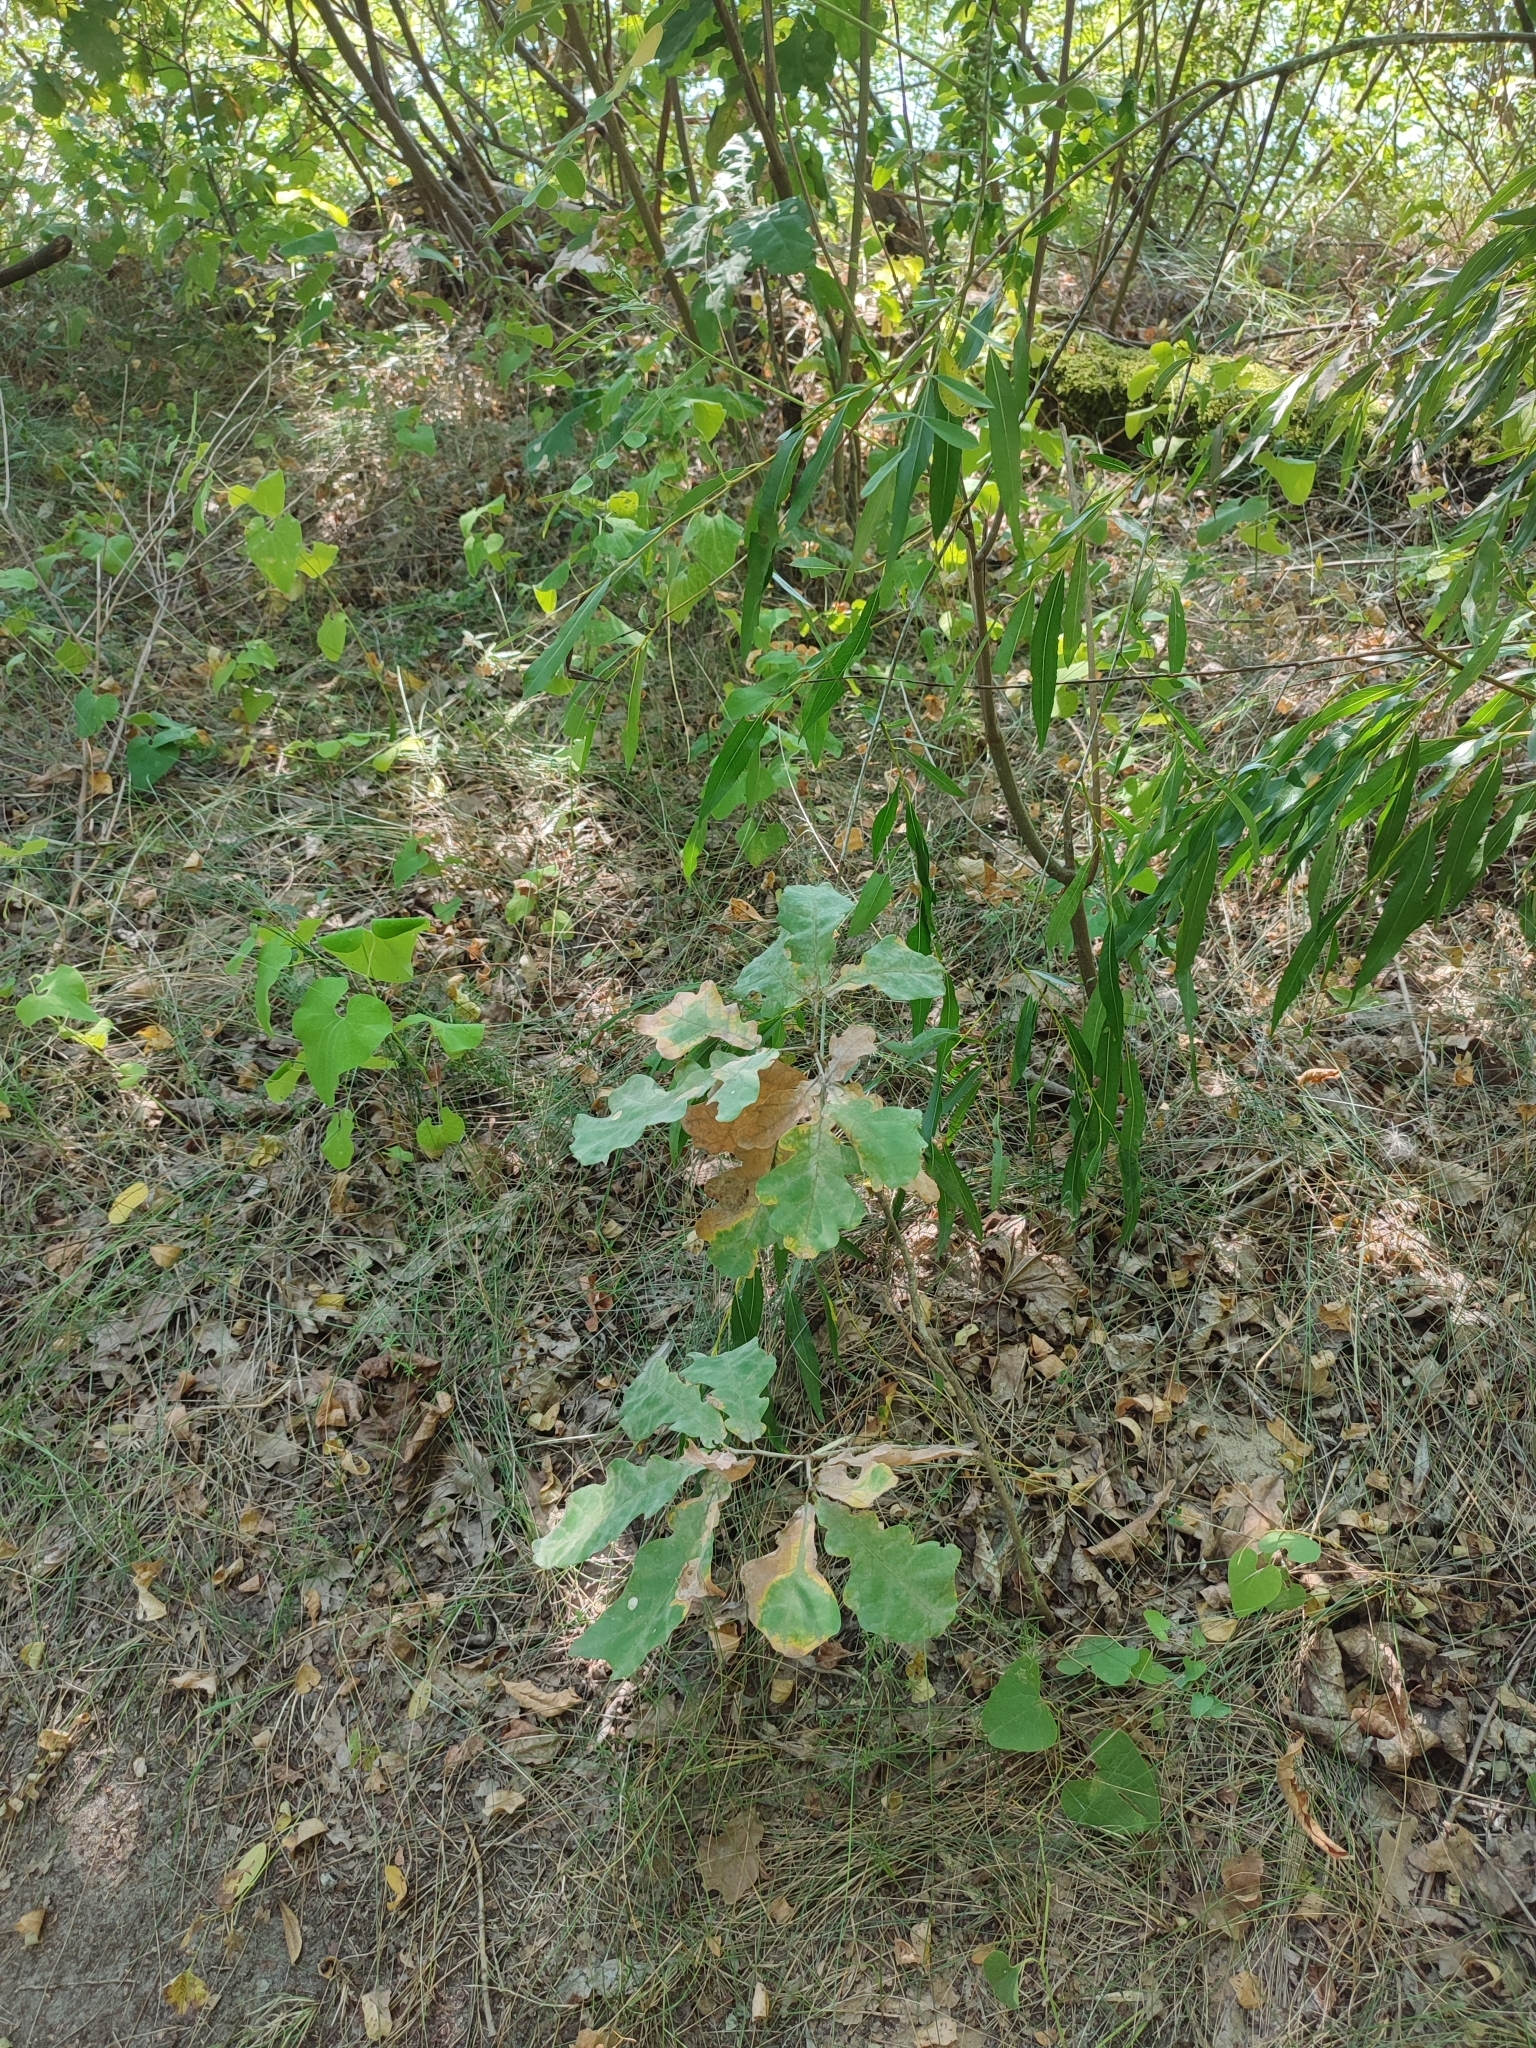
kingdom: Plantae
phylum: Tracheophyta
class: Magnoliopsida
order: Fagales
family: Fagaceae
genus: Quercus
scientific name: Quercus robur
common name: Pedunculate oak
